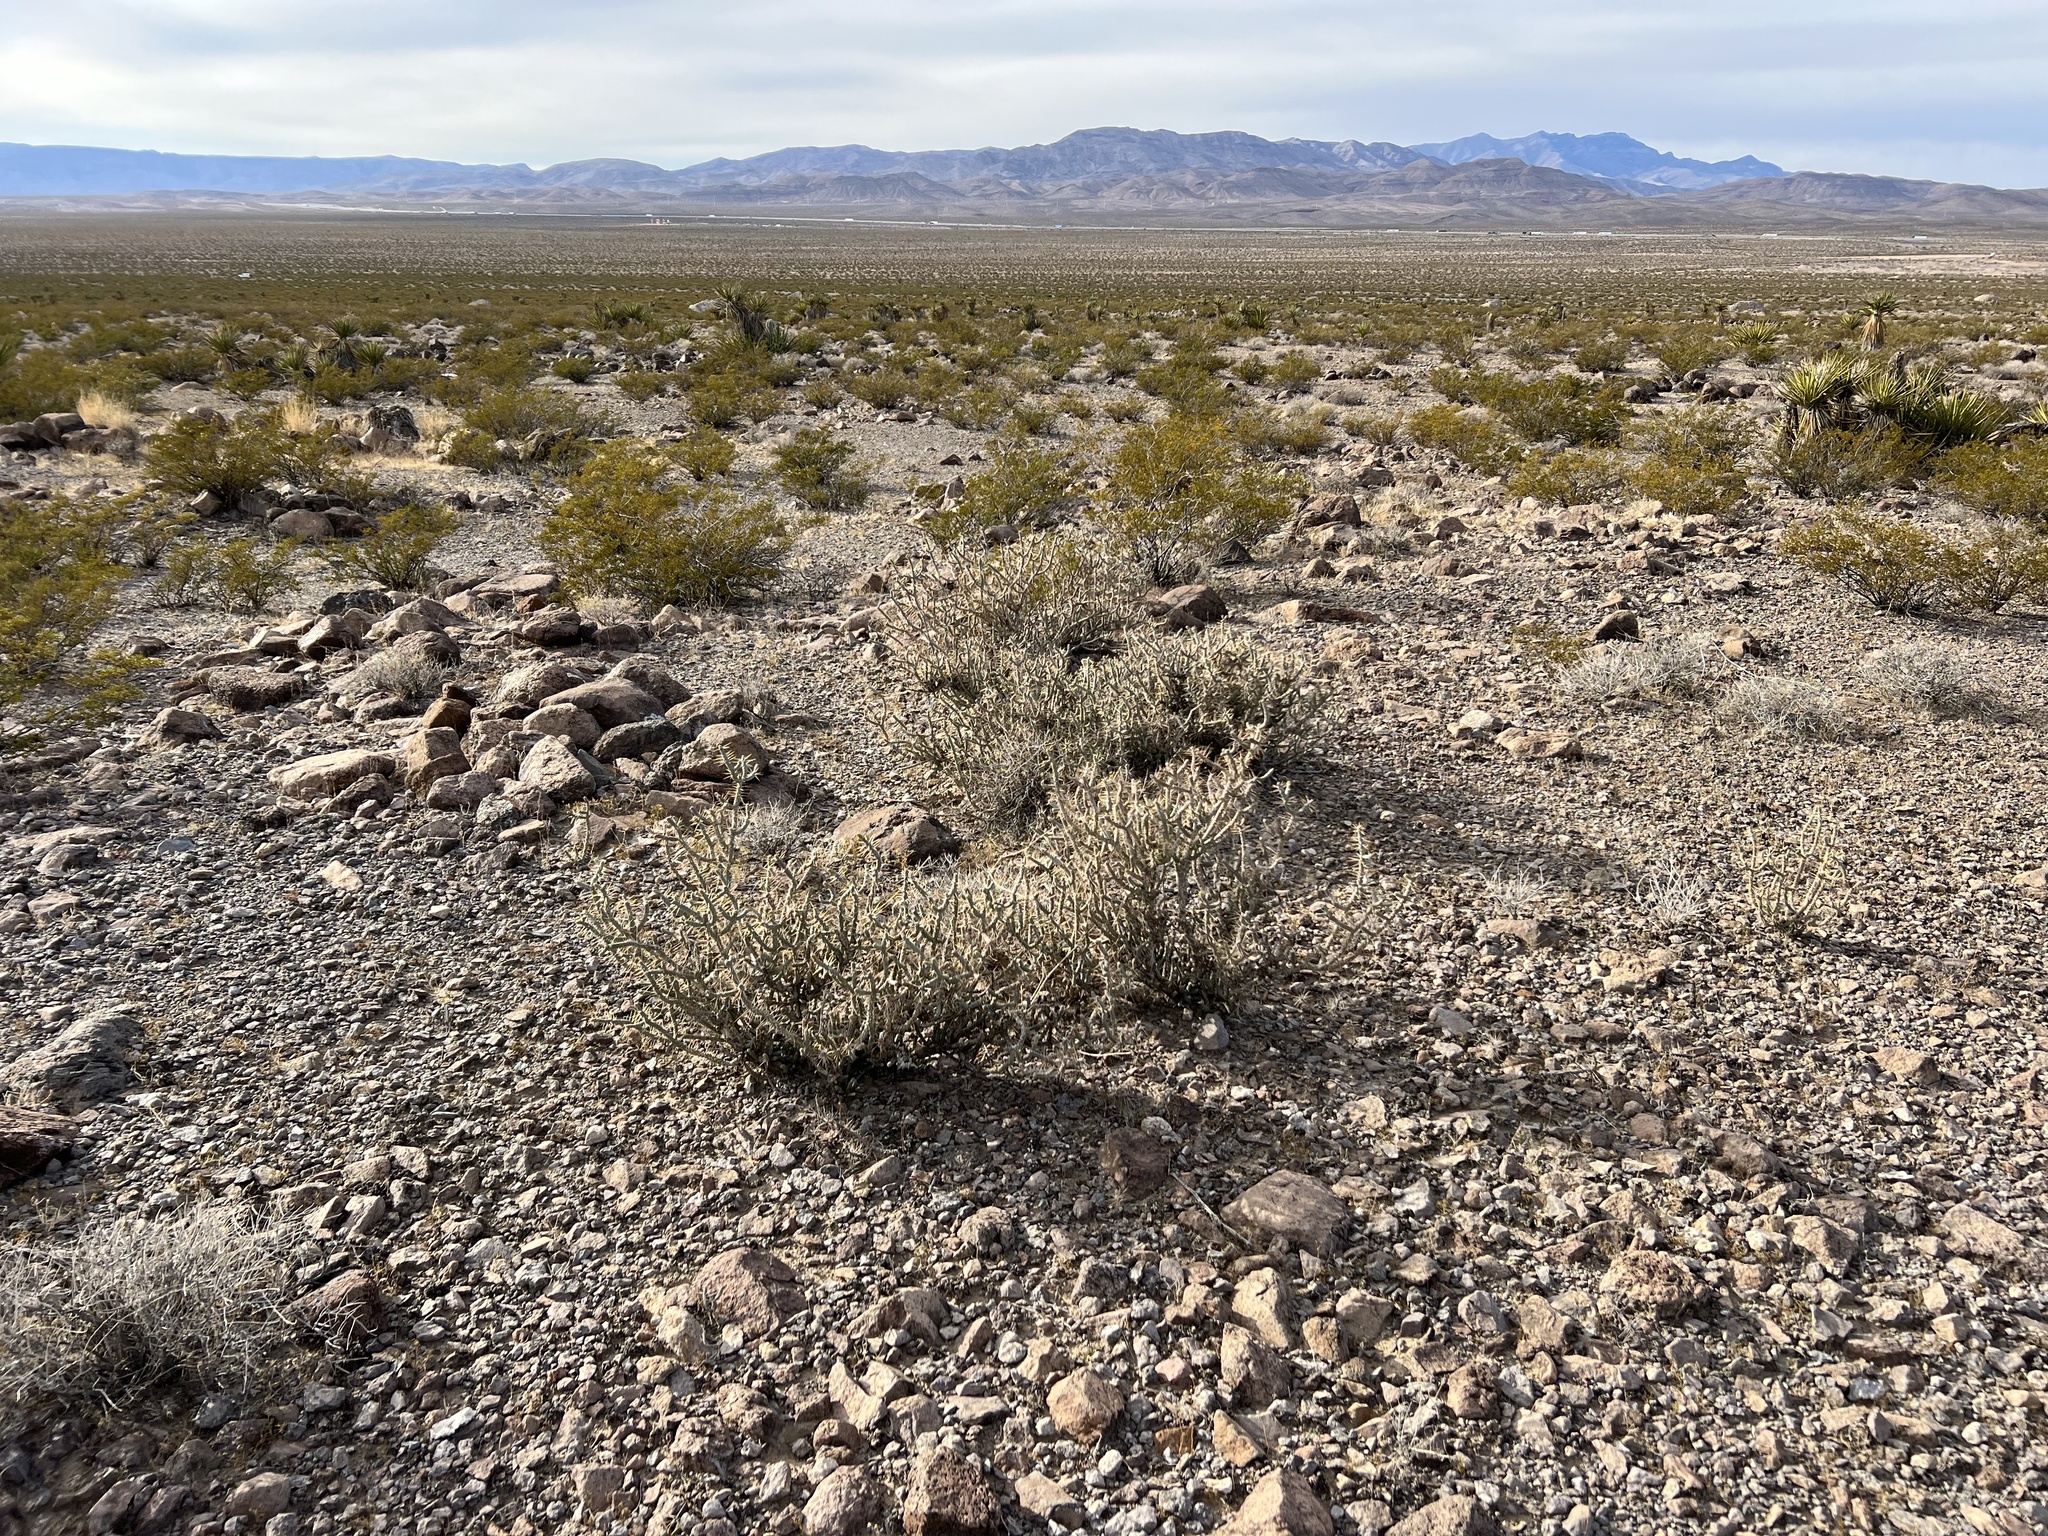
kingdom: Plantae
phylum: Tracheophyta
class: Magnoliopsida
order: Caryophyllales
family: Cactaceae
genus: Cylindropuntia
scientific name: Cylindropuntia ramosissima
